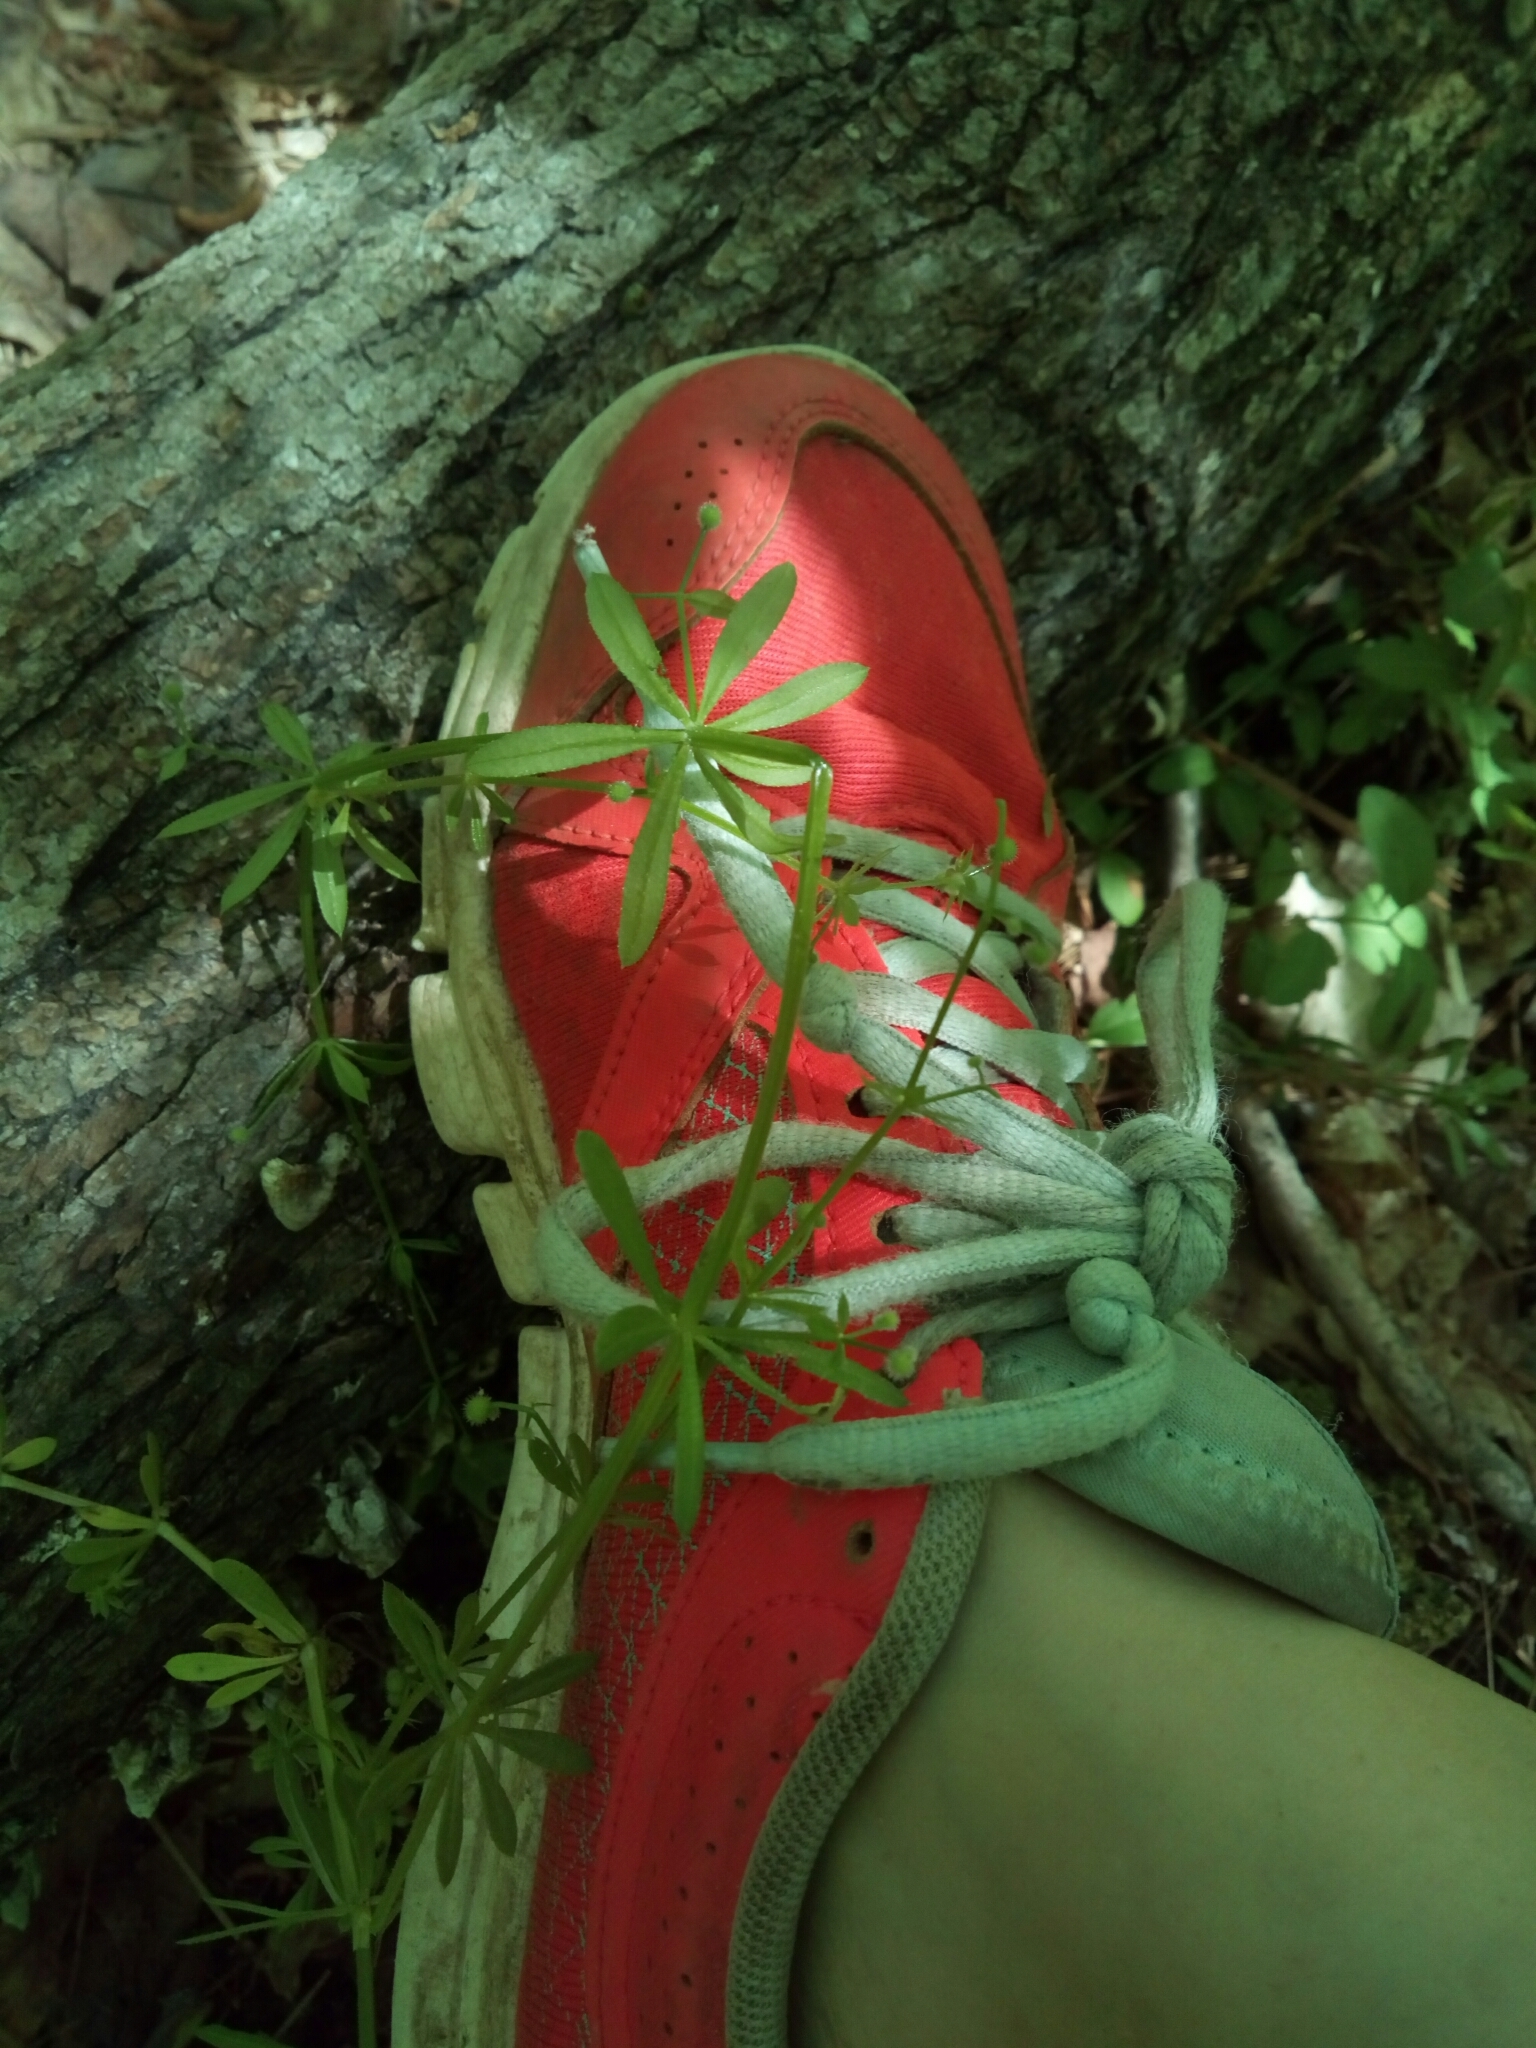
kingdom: Plantae
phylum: Tracheophyta
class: Magnoliopsida
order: Gentianales
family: Rubiaceae
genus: Galium
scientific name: Galium aparine
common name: Cleavers
